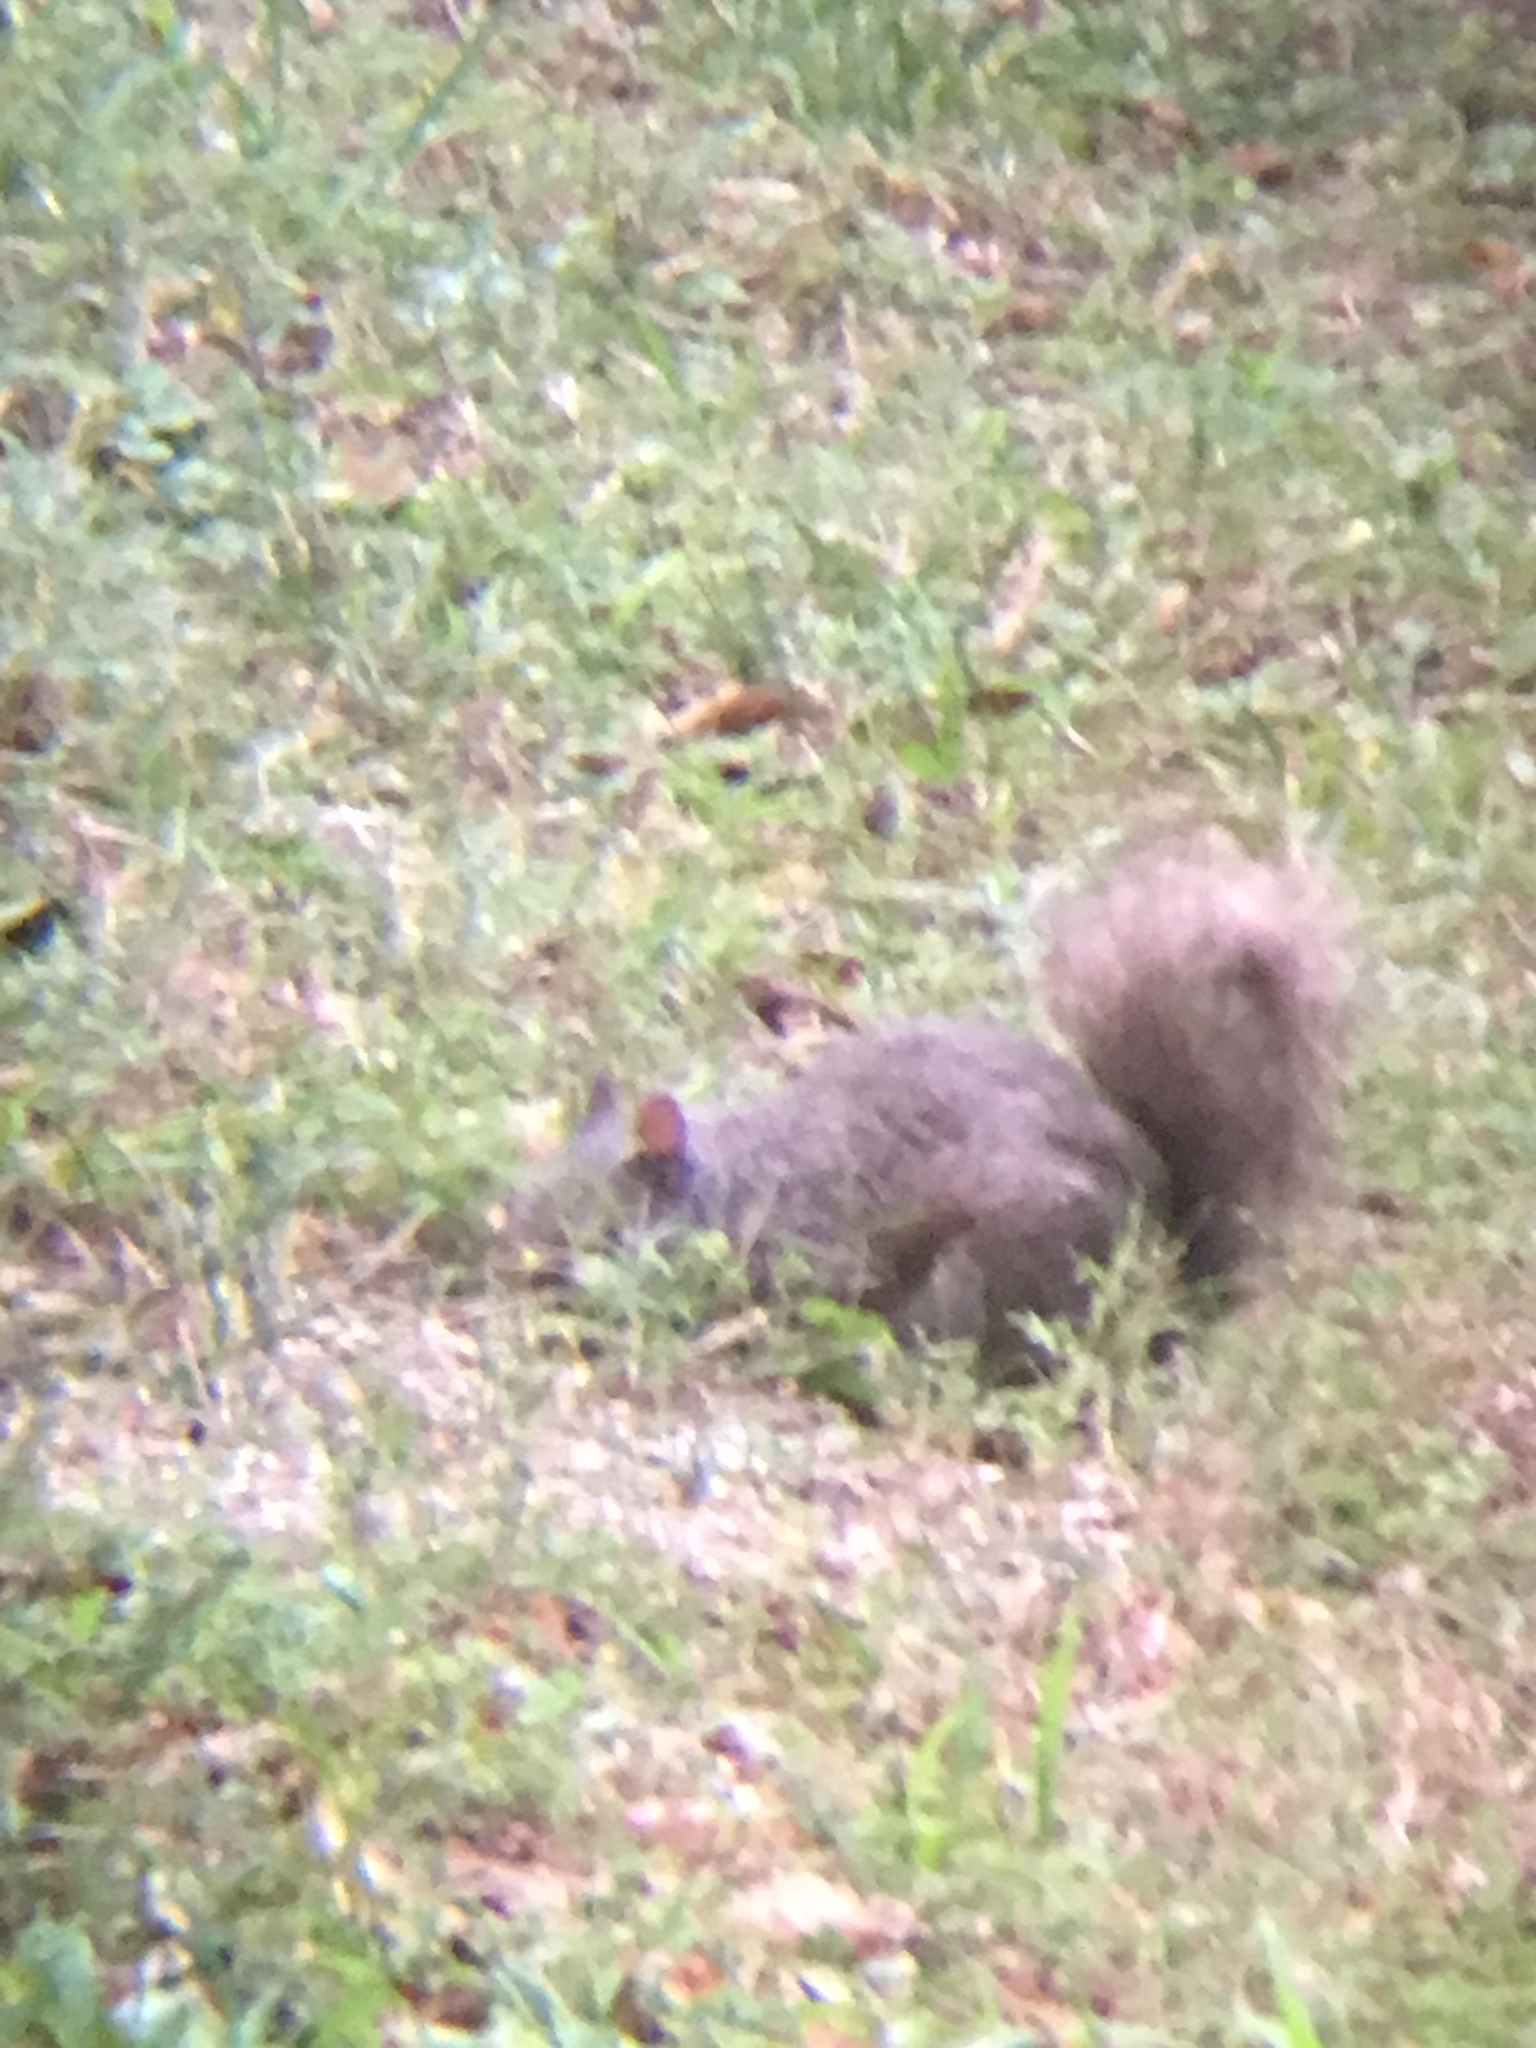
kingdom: Animalia
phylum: Chordata
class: Mammalia
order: Rodentia
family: Sciuridae
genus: Sciurus
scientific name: Sciurus carolinensis
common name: Eastern gray squirrel
